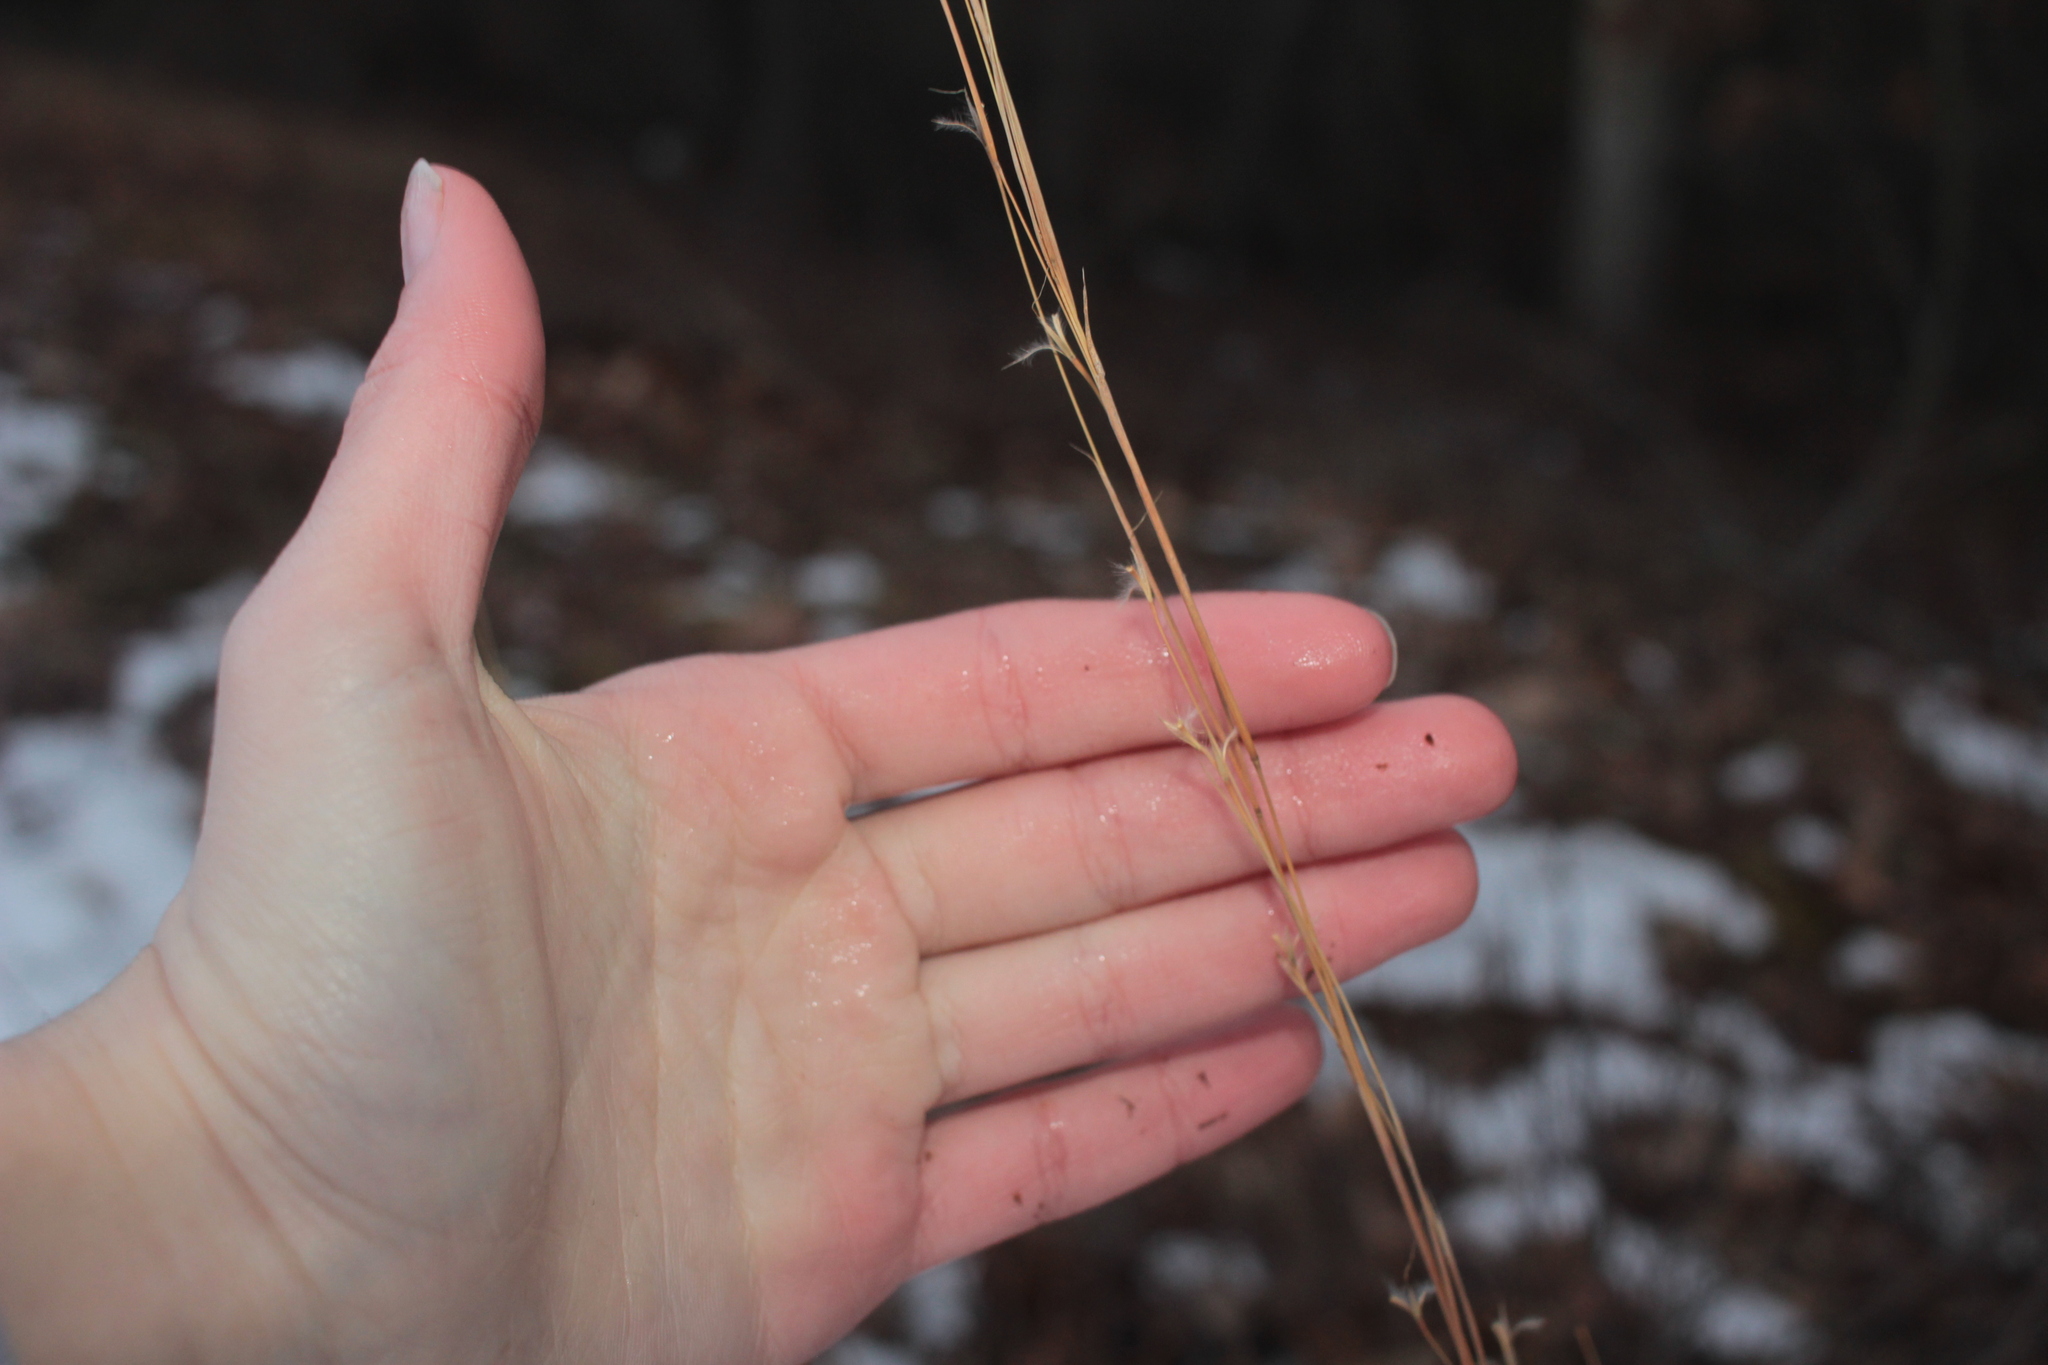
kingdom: Plantae
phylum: Tracheophyta
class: Liliopsida
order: Poales
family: Poaceae
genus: Schizachyrium
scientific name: Schizachyrium scoparium
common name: Little bluestem
